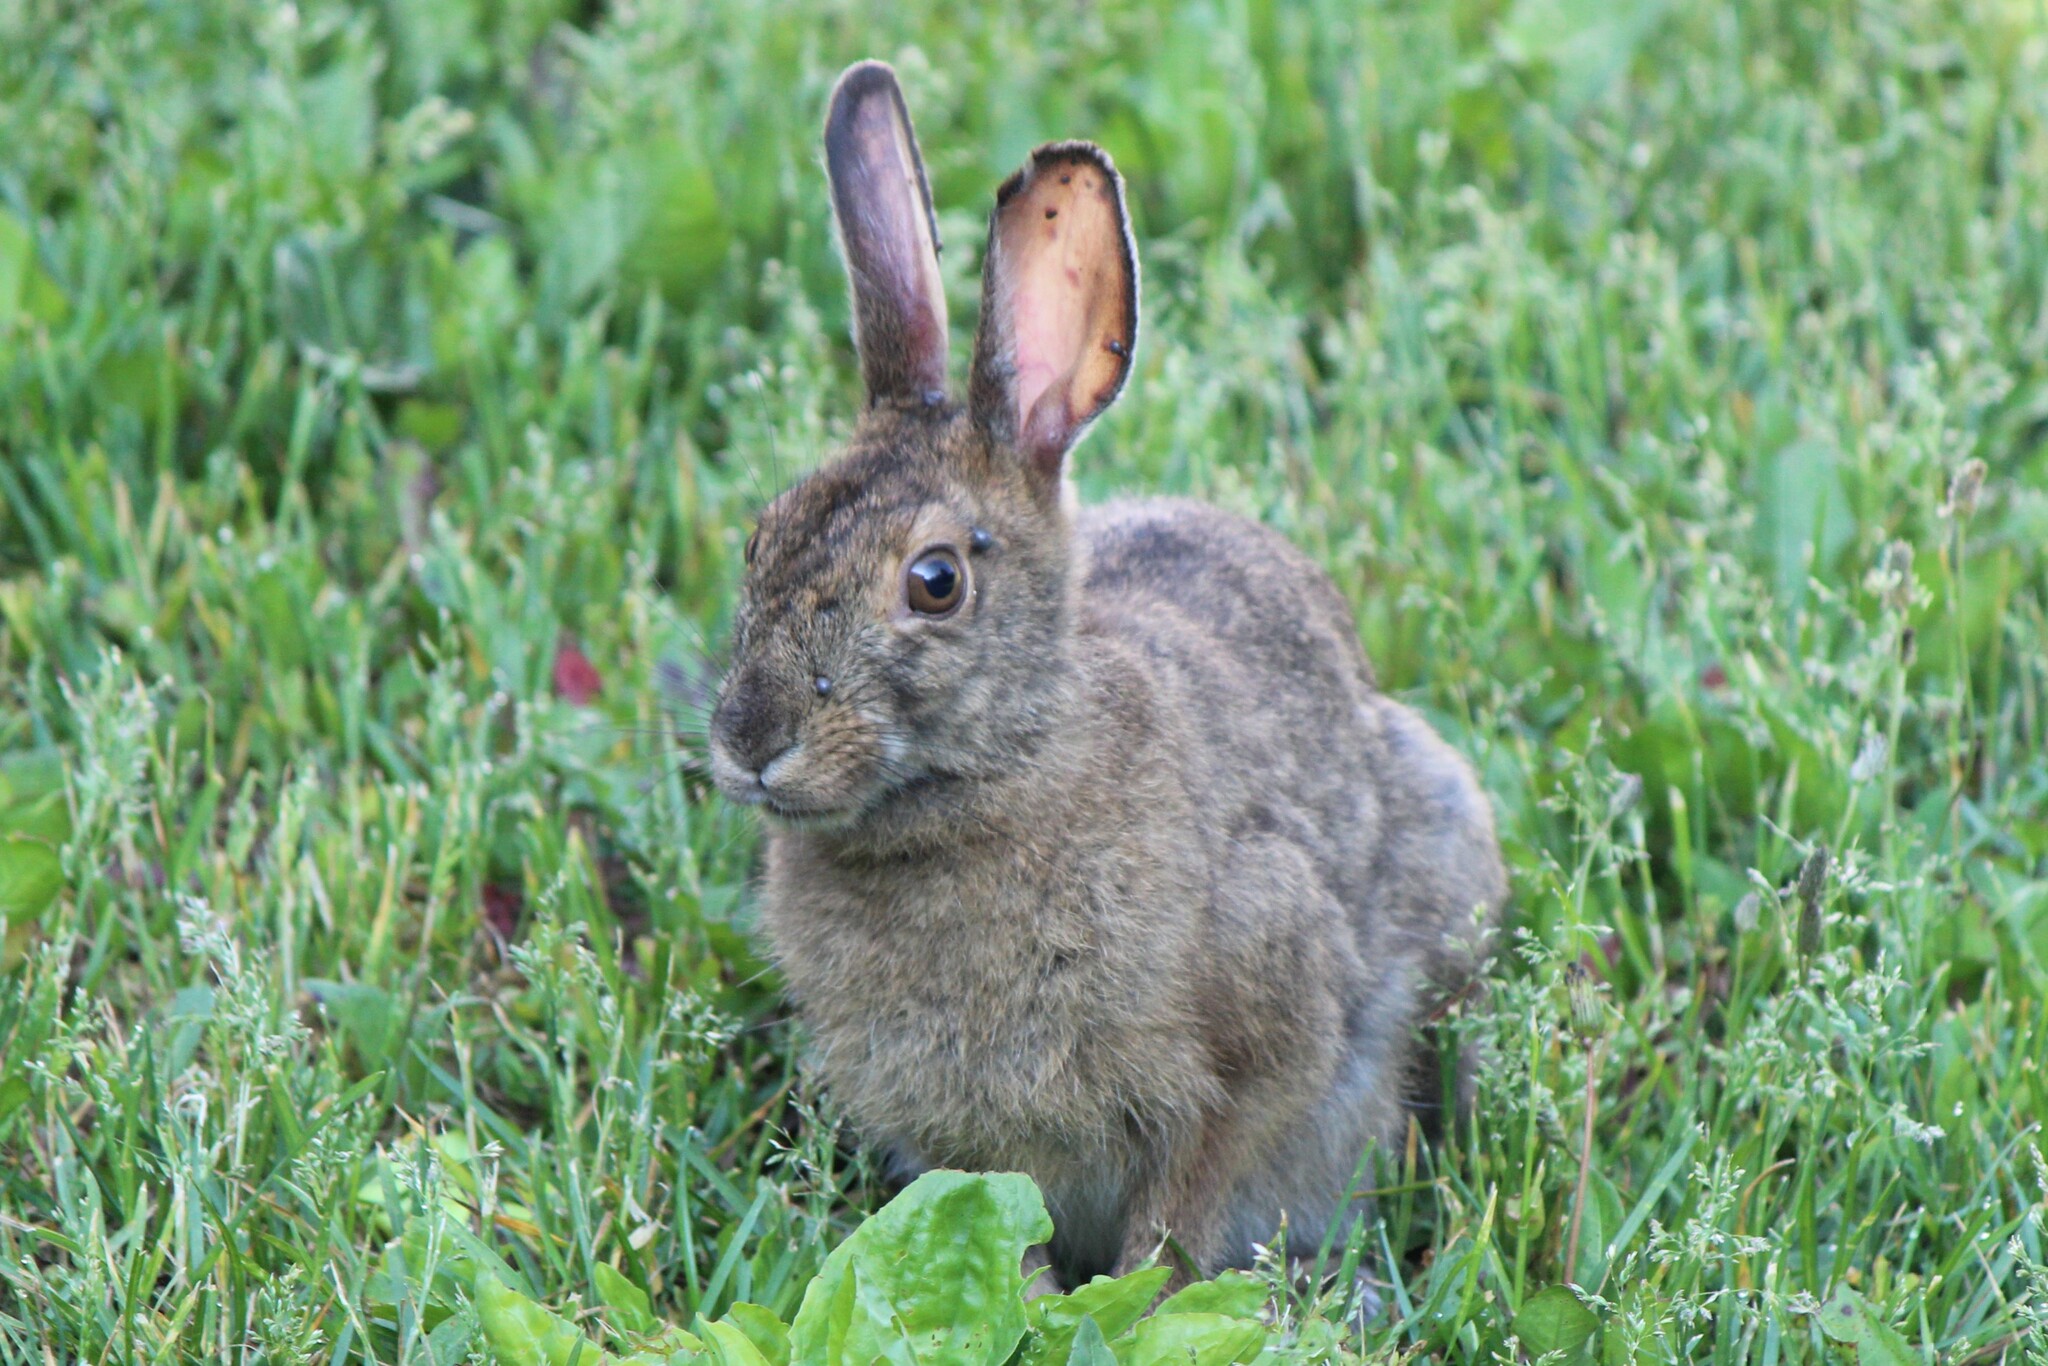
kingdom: Animalia
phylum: Chordata
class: Mammalia
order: Lagomorpha
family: Leporidae
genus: Lepus
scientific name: Lepus americanus
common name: Snowshoe hare
